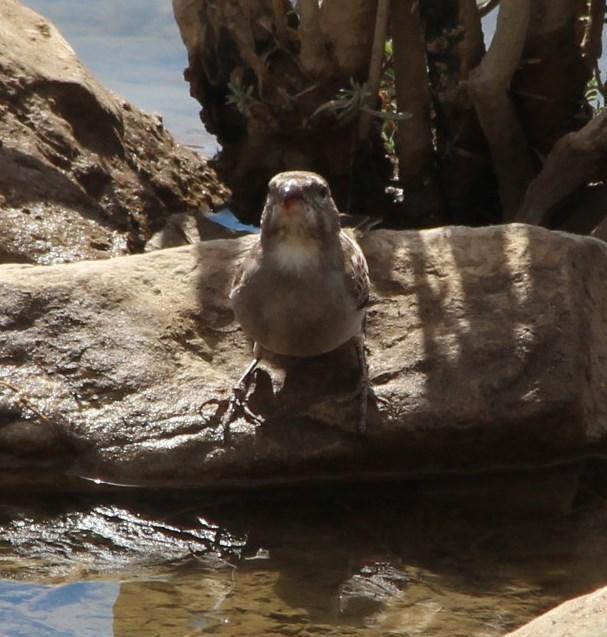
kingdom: Animalia
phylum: Chordata
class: Aves
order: Passeriformes
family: Fringillidae
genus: Crithagra
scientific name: Crithagra albogularis
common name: White-throated canary
